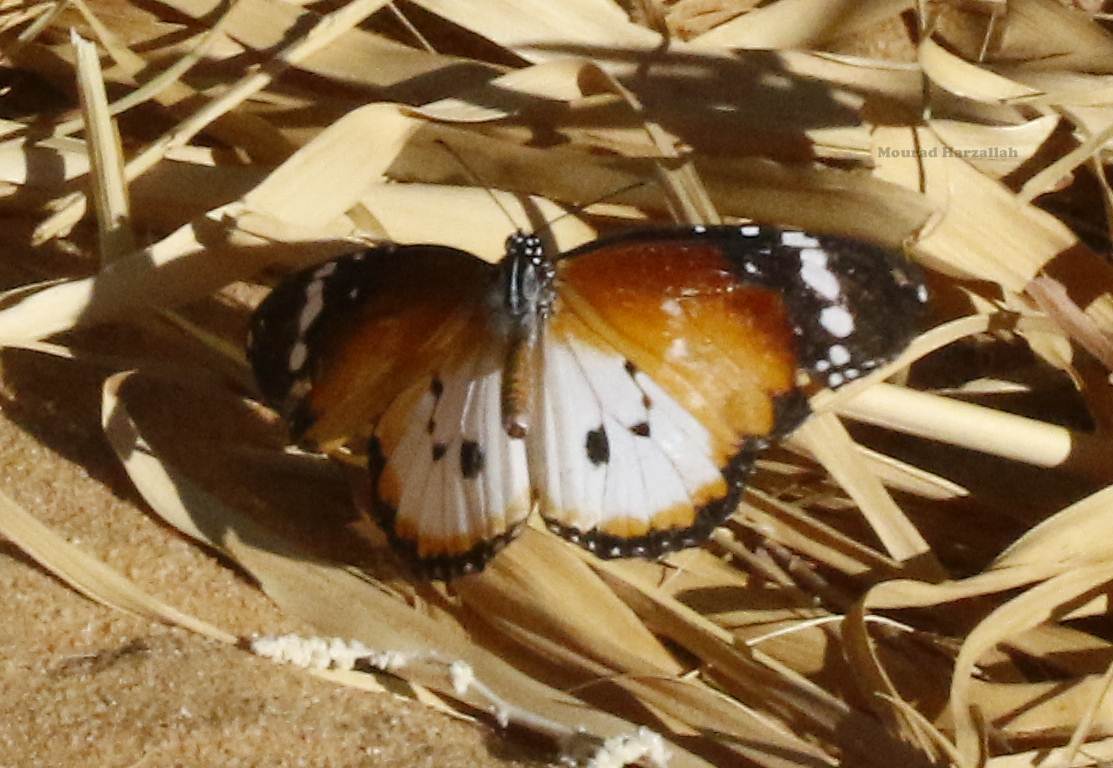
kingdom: Animalia
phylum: Arthropoda
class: Insecta
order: Lepidoptera
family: Nymphalidae
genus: Danaus
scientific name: Danaus chrysippus
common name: Plain tiger
